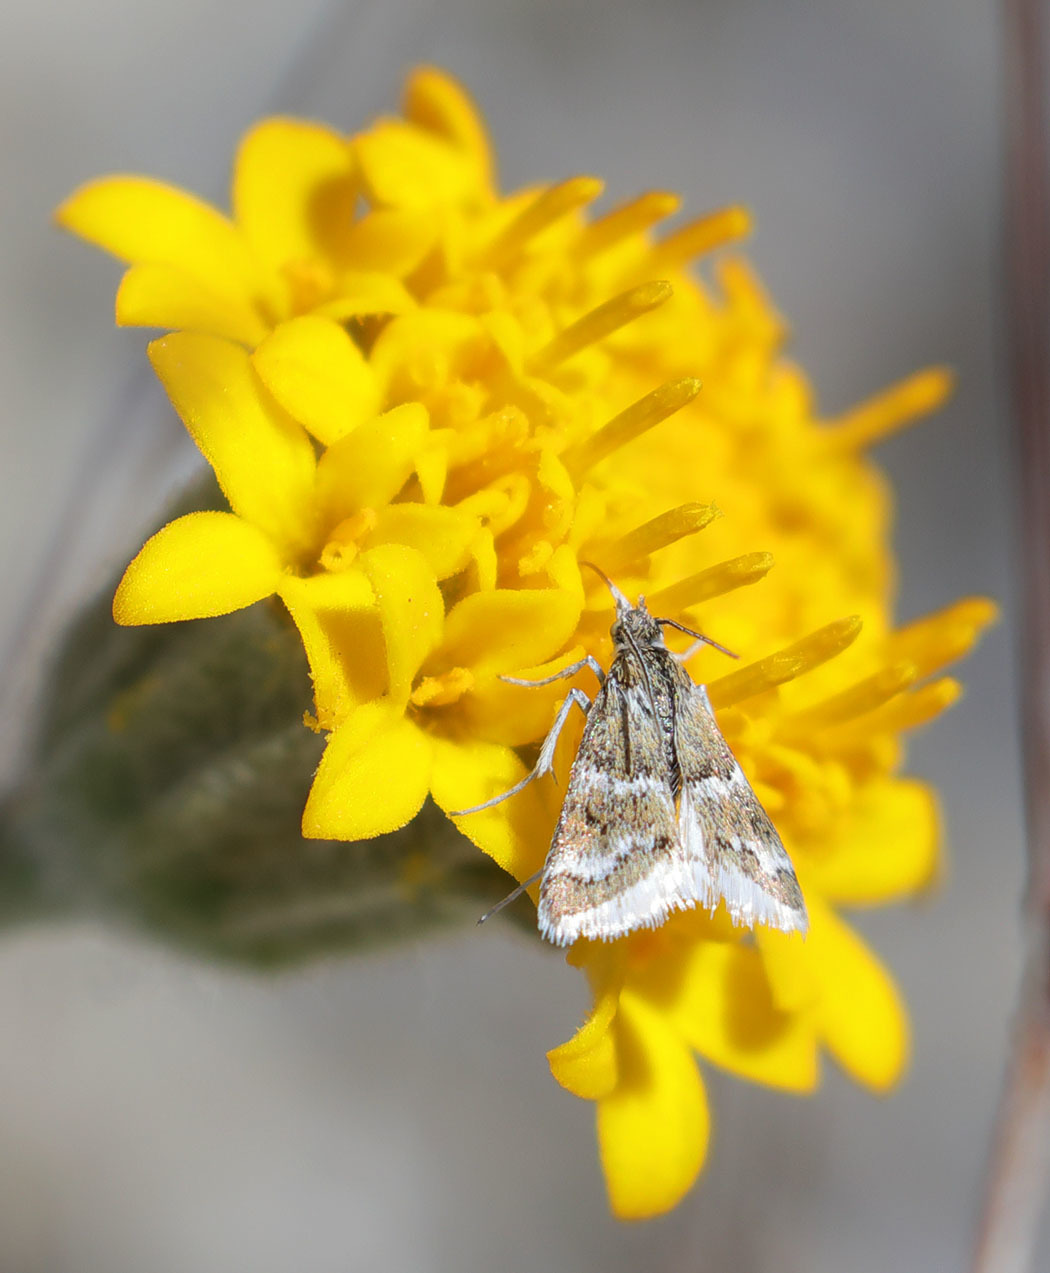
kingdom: Animalia
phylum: Arthropoda
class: Insecta
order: Lepidoptera
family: Crambidae
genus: Nannobotys
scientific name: Nannobotys commortalis
